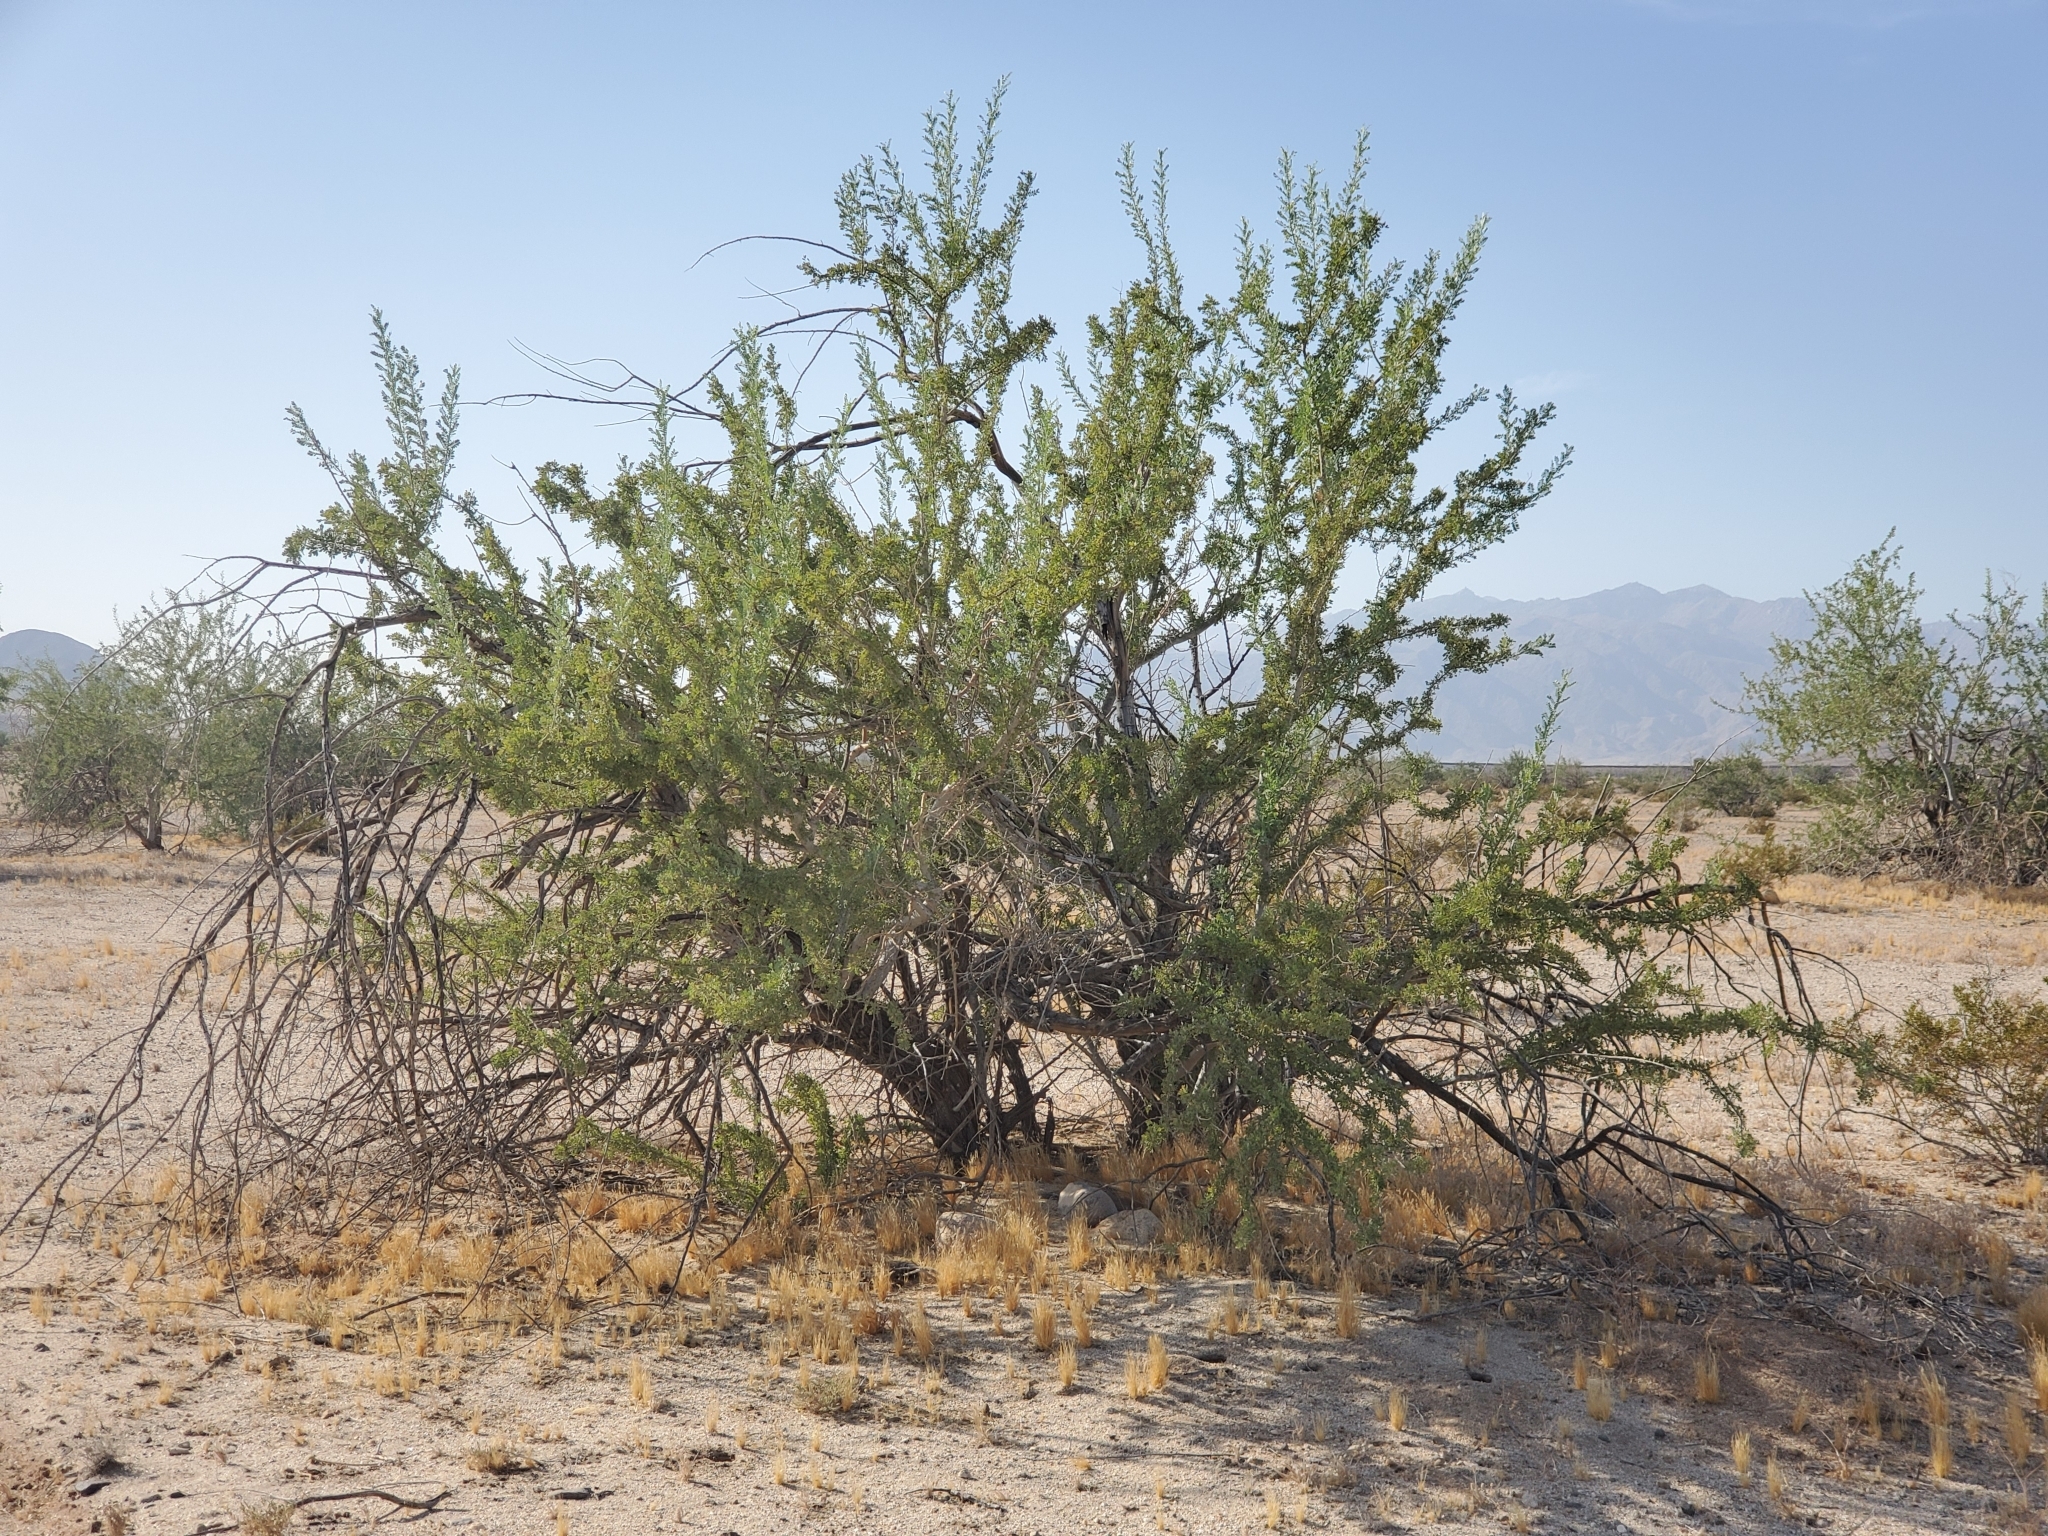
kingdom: Plantae
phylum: Tracheophyta
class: Magnoliopsida
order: Fabales
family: Fabaceae
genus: Olneya
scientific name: Olneya tesota
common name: Desert ironwood
